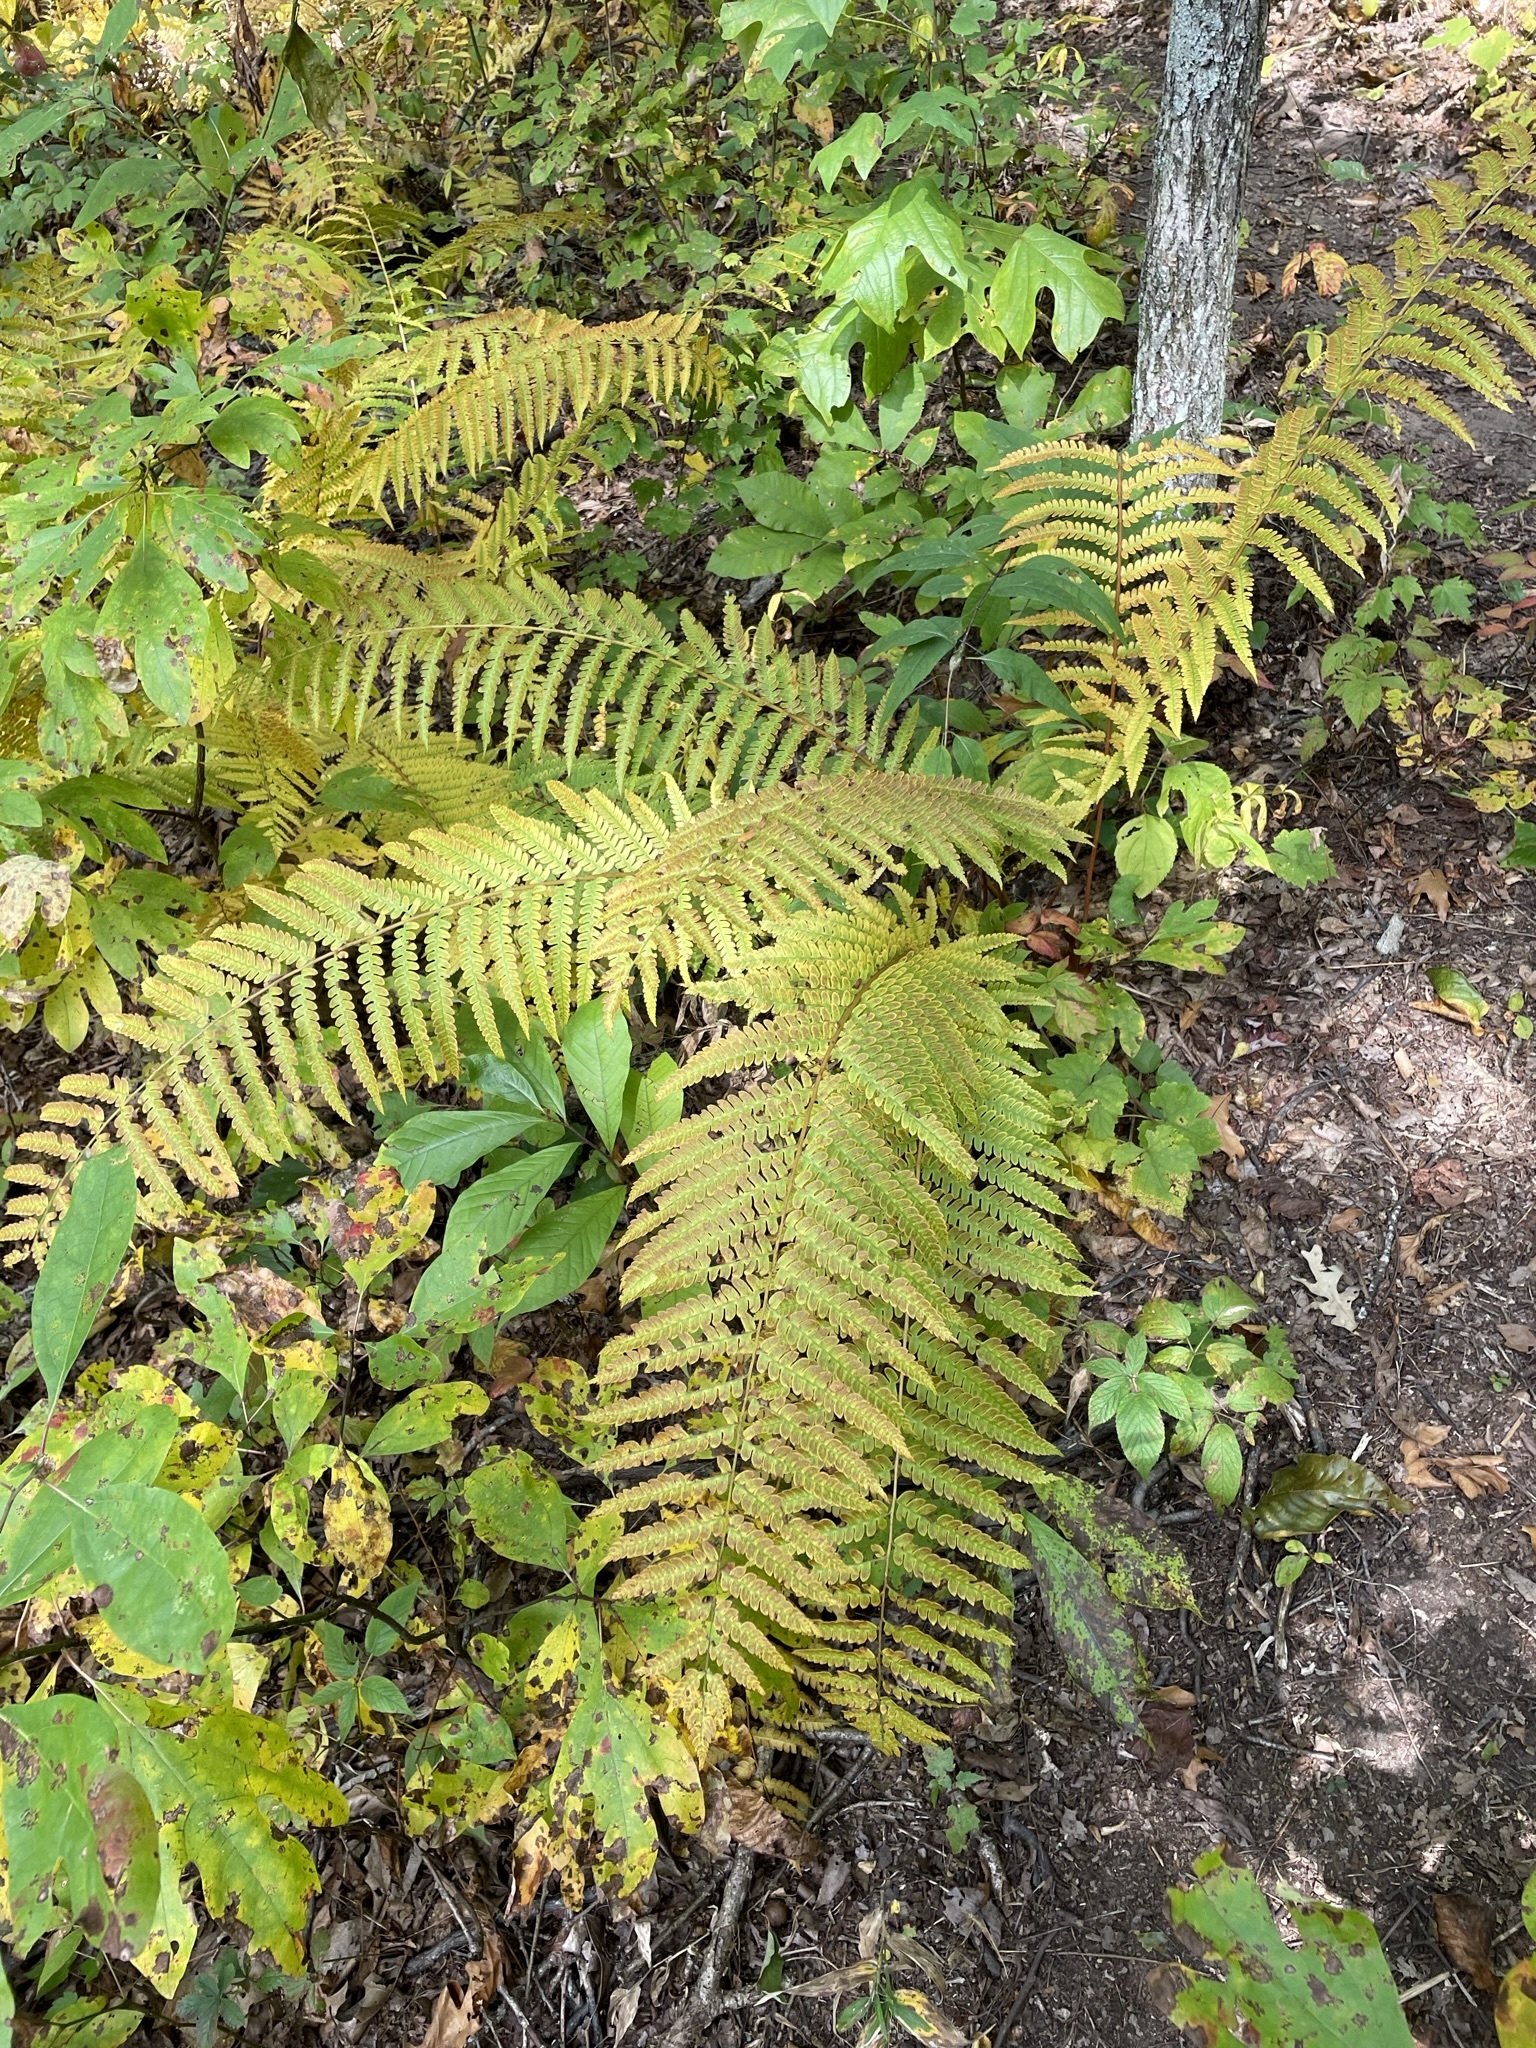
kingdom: Plantae
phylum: Tracheophyta
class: Polypodiopsida
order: Osmundales
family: Osmundaceae
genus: Osmundastrum
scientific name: Osmundastrum cinnamomeum
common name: Cinnamon fern
